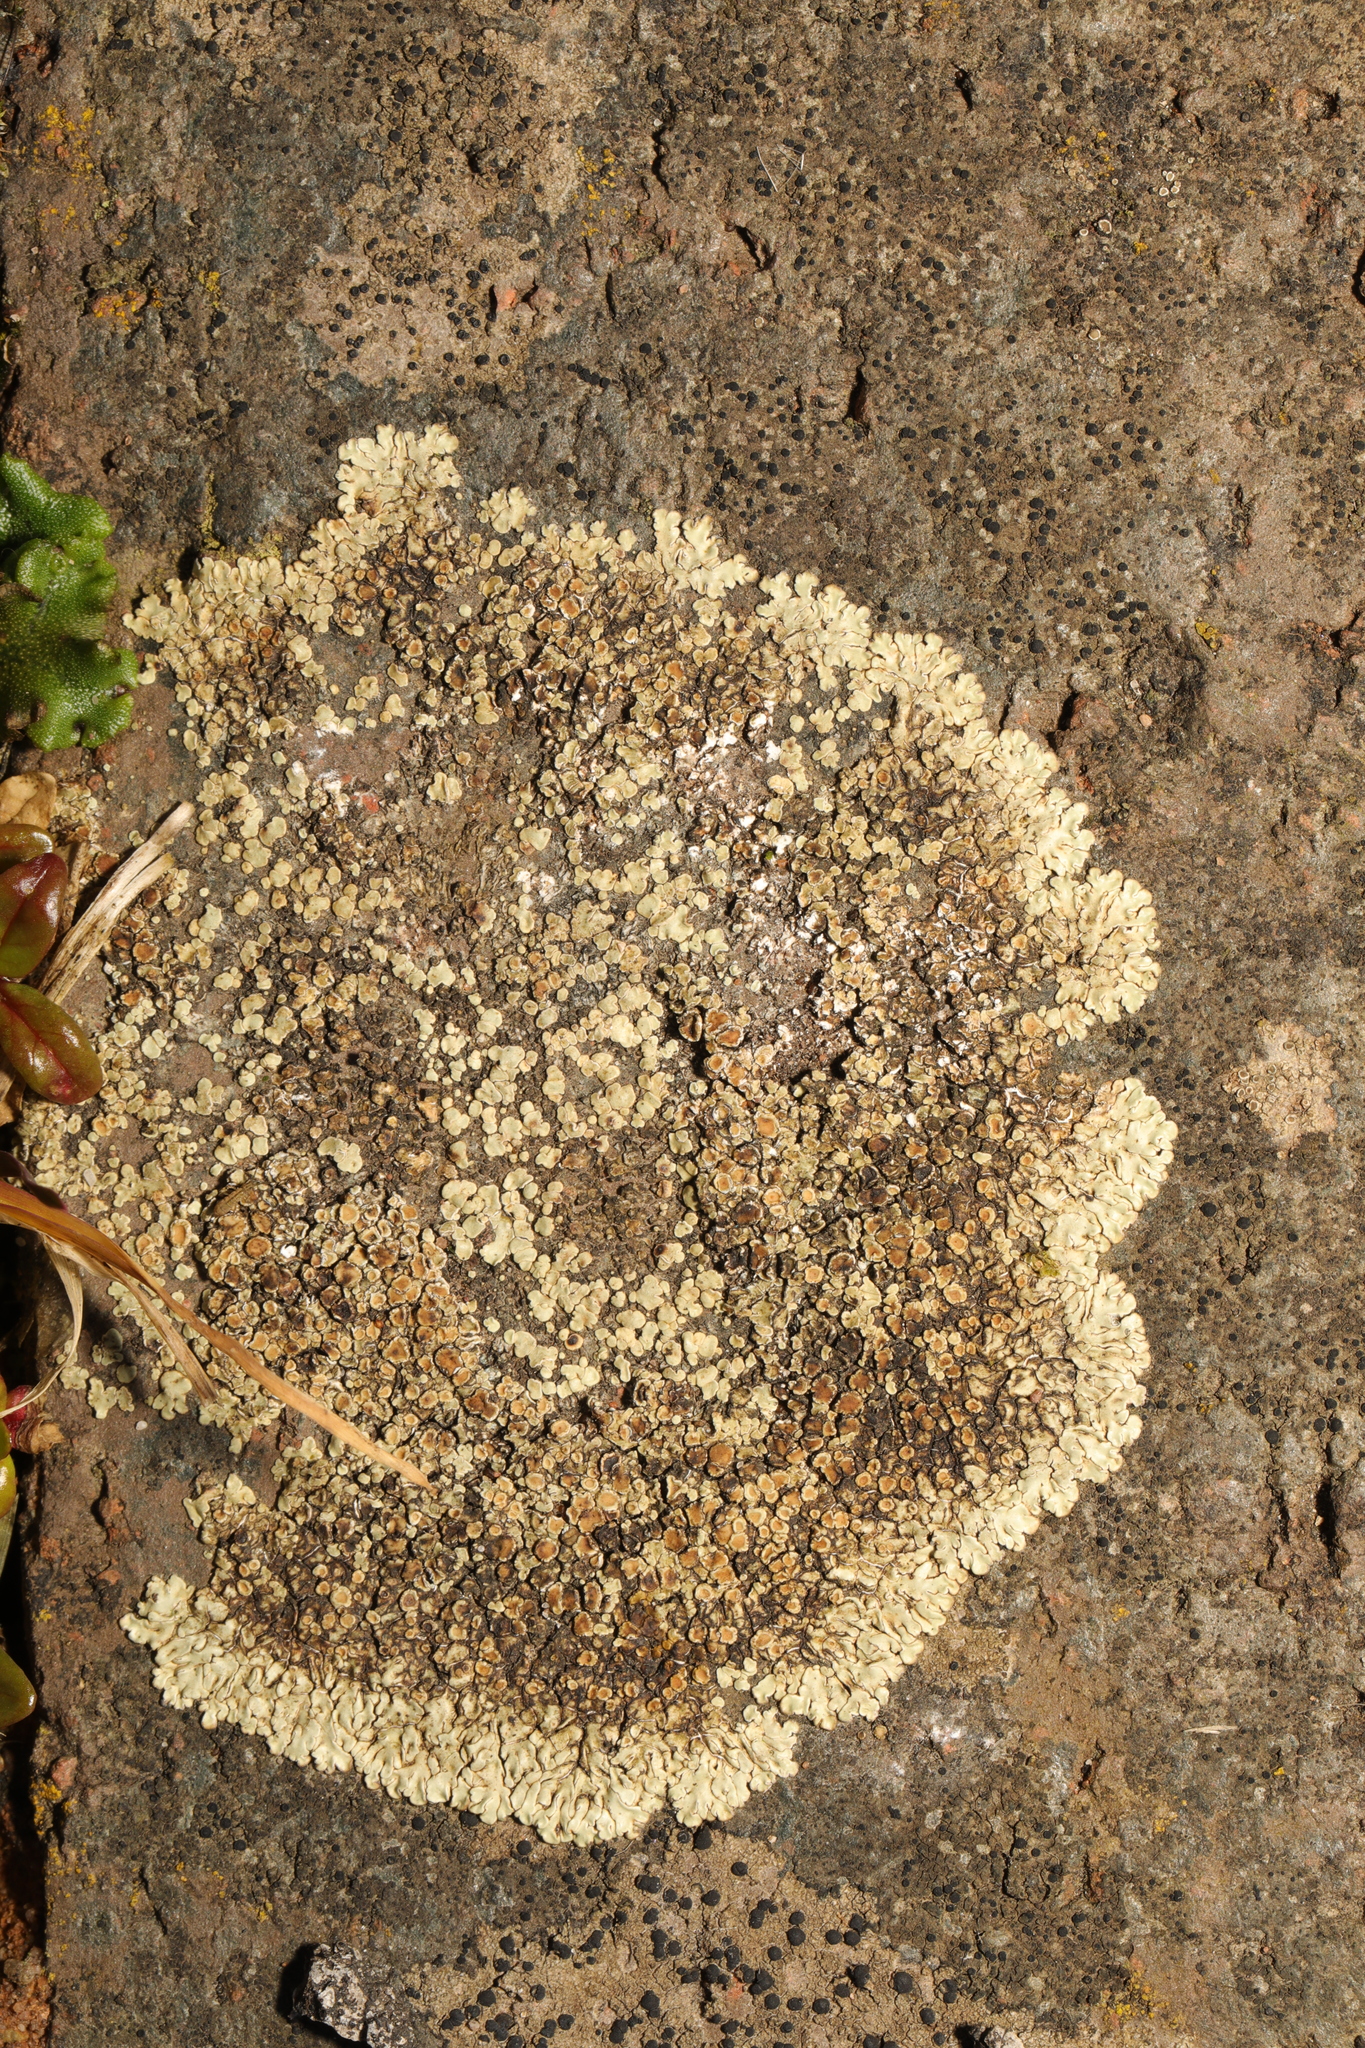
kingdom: Fungi
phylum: Ascomycota
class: Lecanoromycetes
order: Lecanorales
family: Lecanoraceae
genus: Protoparmeliopsis
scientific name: Protoparmeliopsis muralis
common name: Stonewall rim lichen
